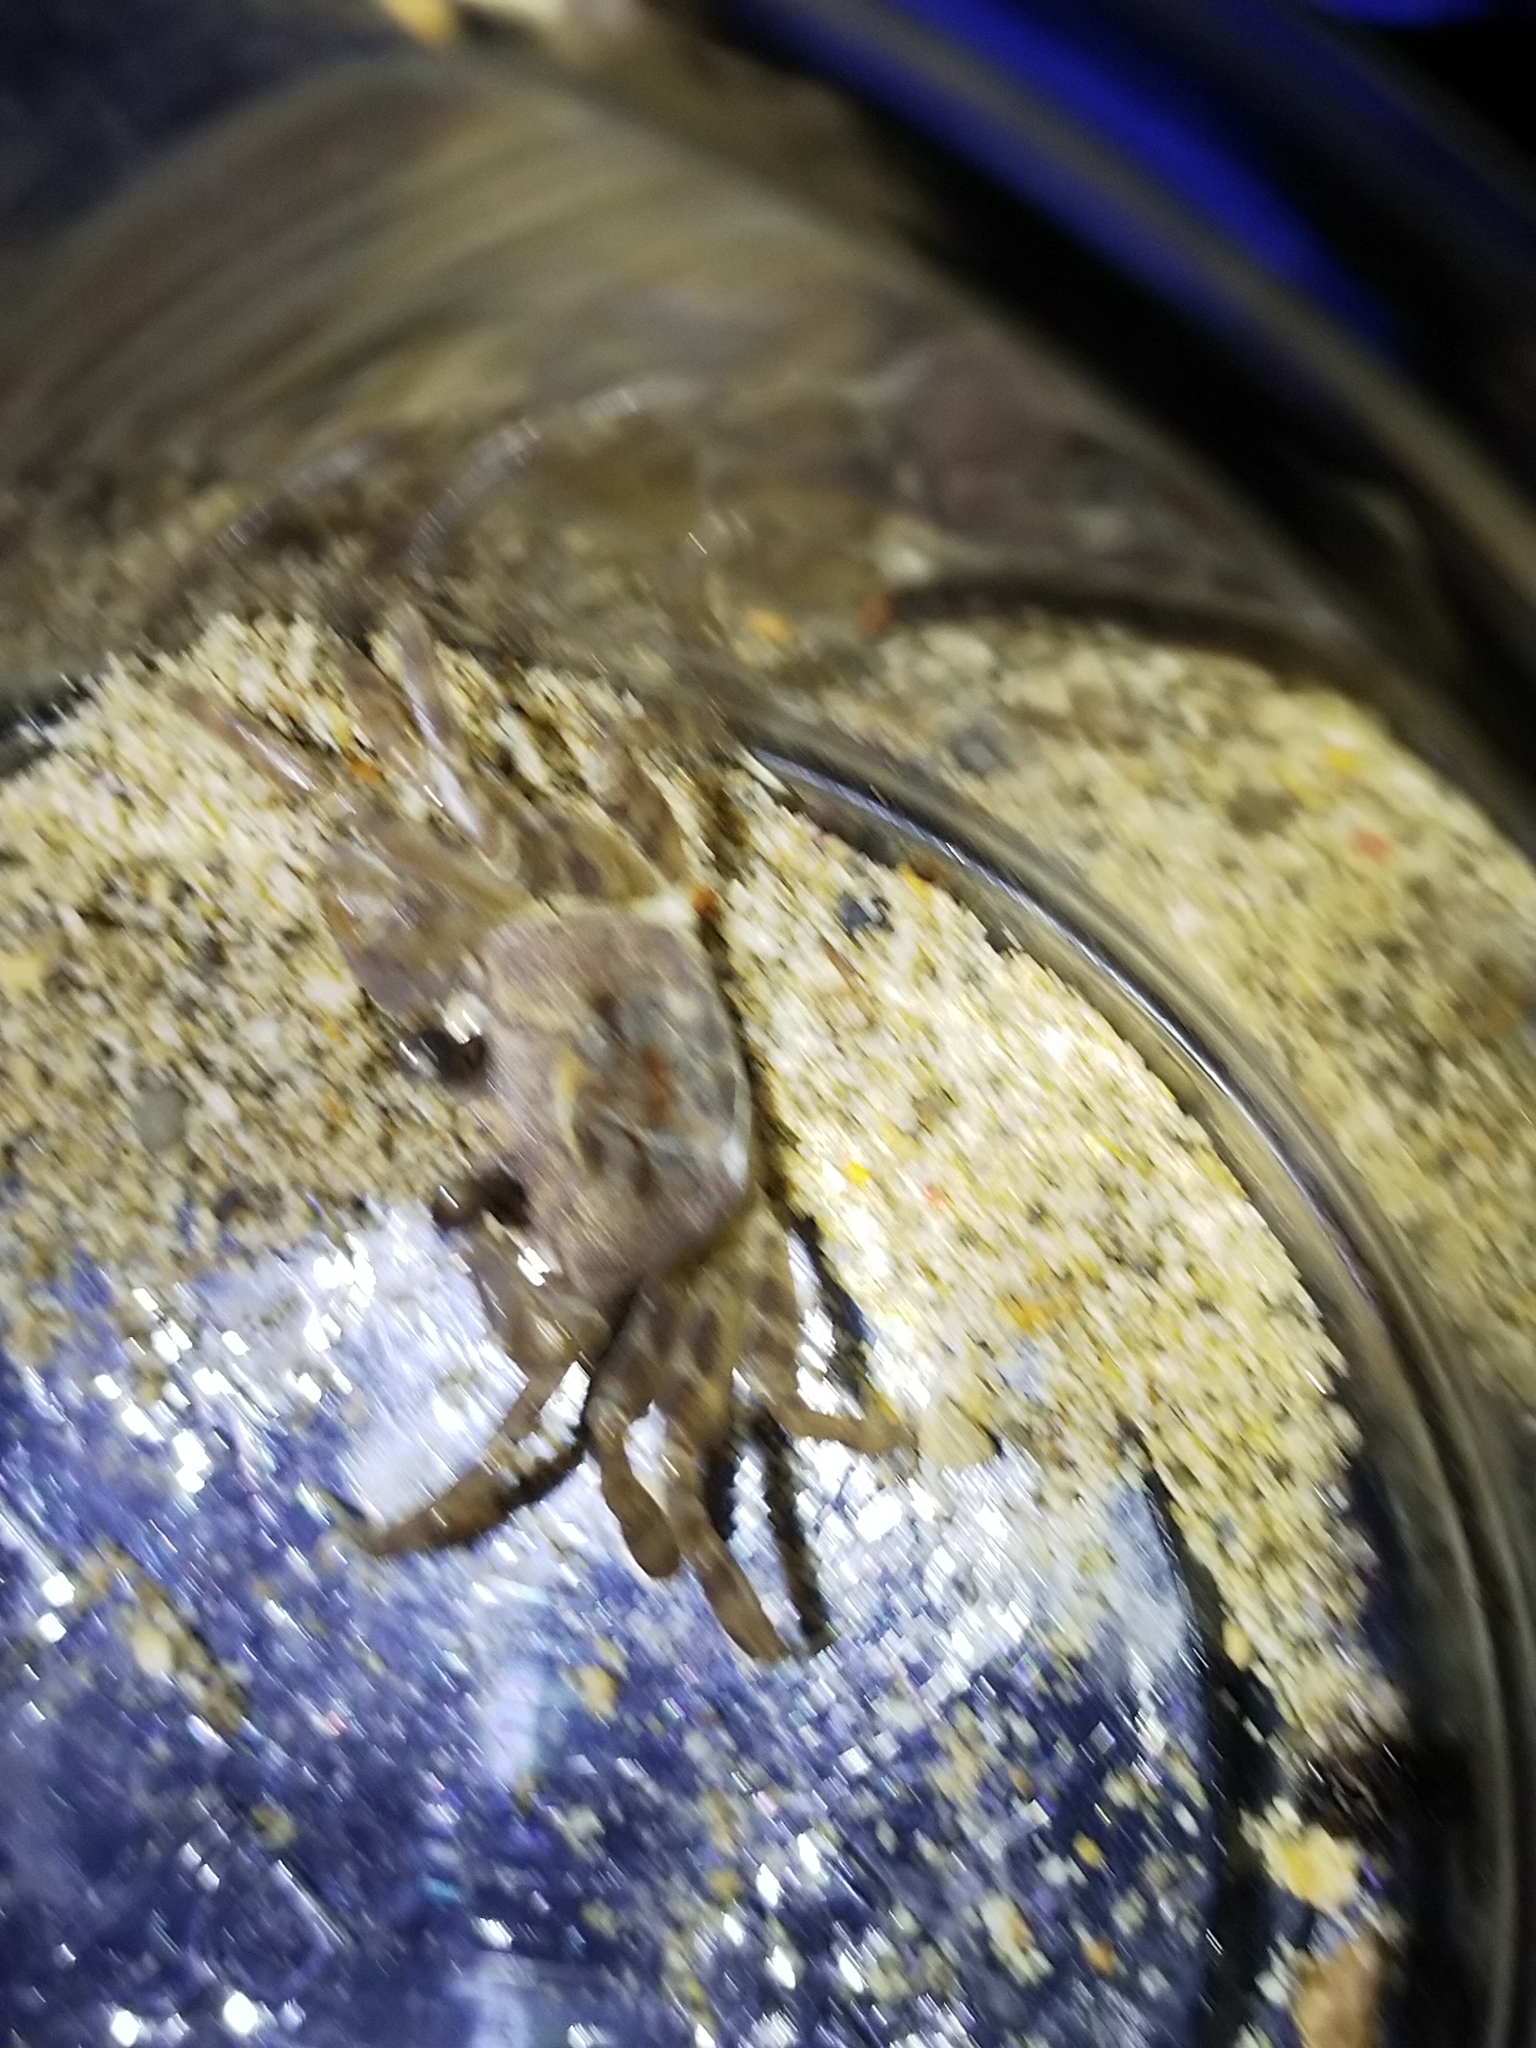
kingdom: Animalia
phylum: Arthropoda
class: Malacostraca
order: Decapoda
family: Ocypodidae
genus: Ocypode
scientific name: Ocypode sinensis
